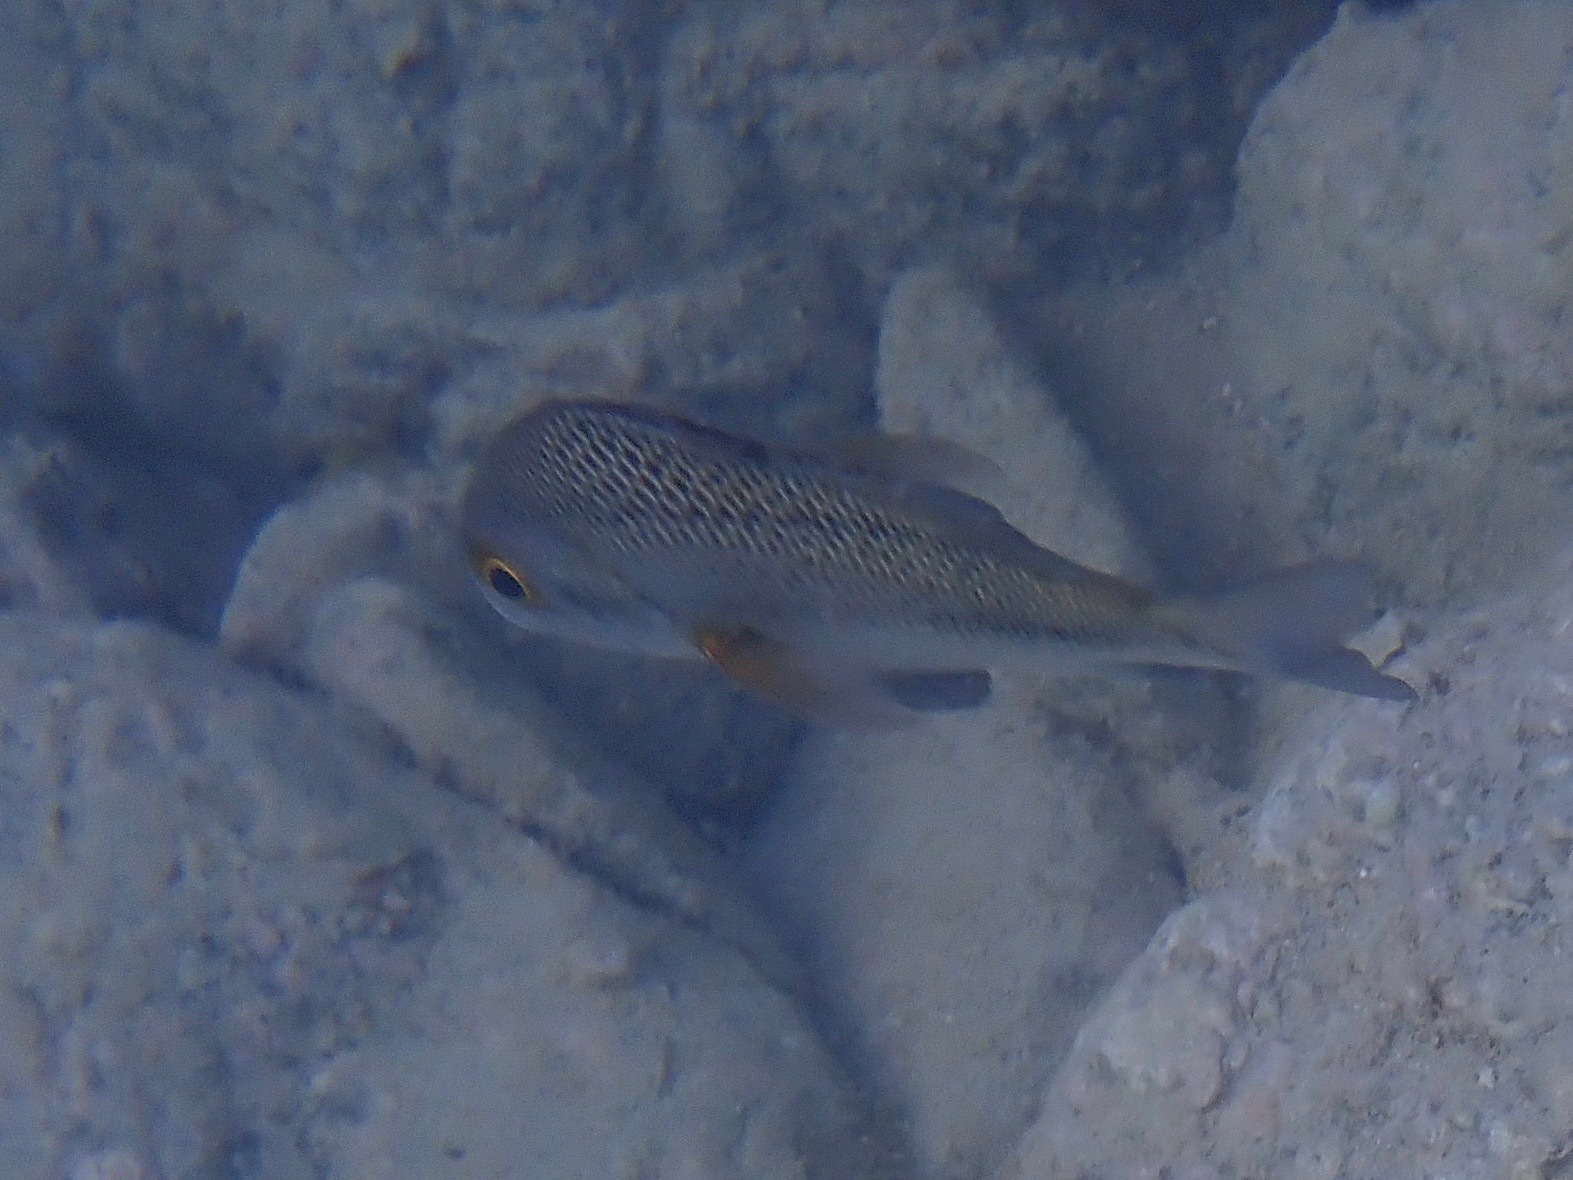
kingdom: Animalia
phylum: Chordata
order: Perciformes
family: Haemulidae
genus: Anisotremus
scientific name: Anisotremus surinamensis
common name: Black margate
